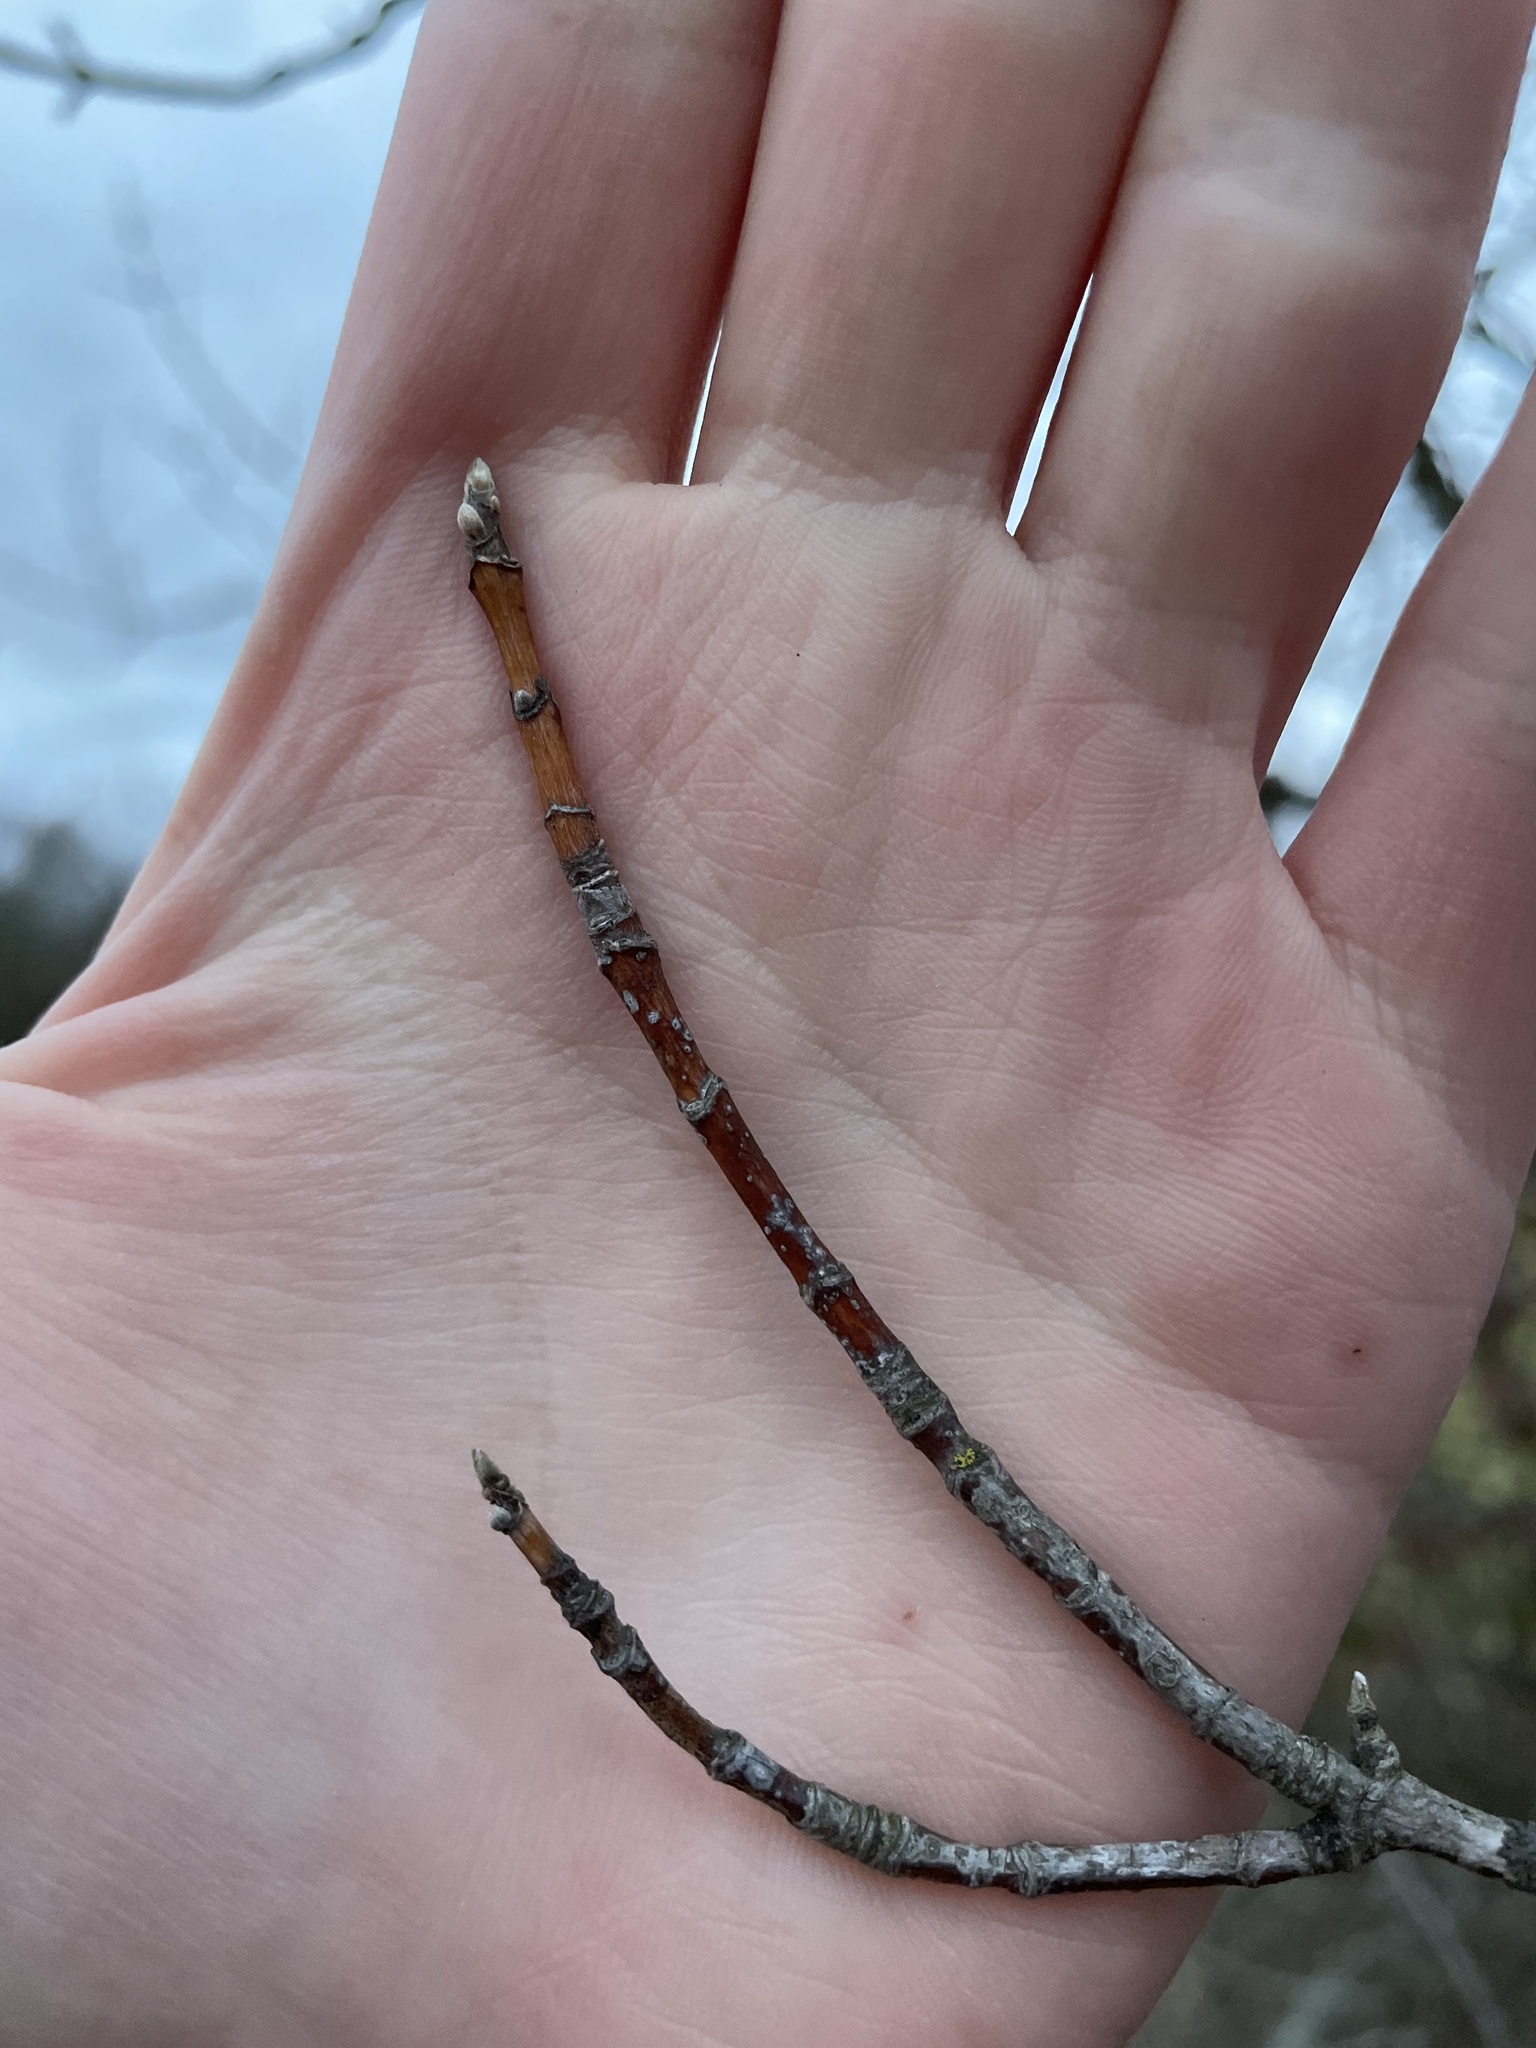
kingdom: Plantae
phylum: Tracheophyta
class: Magnoliopsida
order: Sapindales
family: Sapindaceae
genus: Acer
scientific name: Acer negundo
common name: Ashleaf maple
